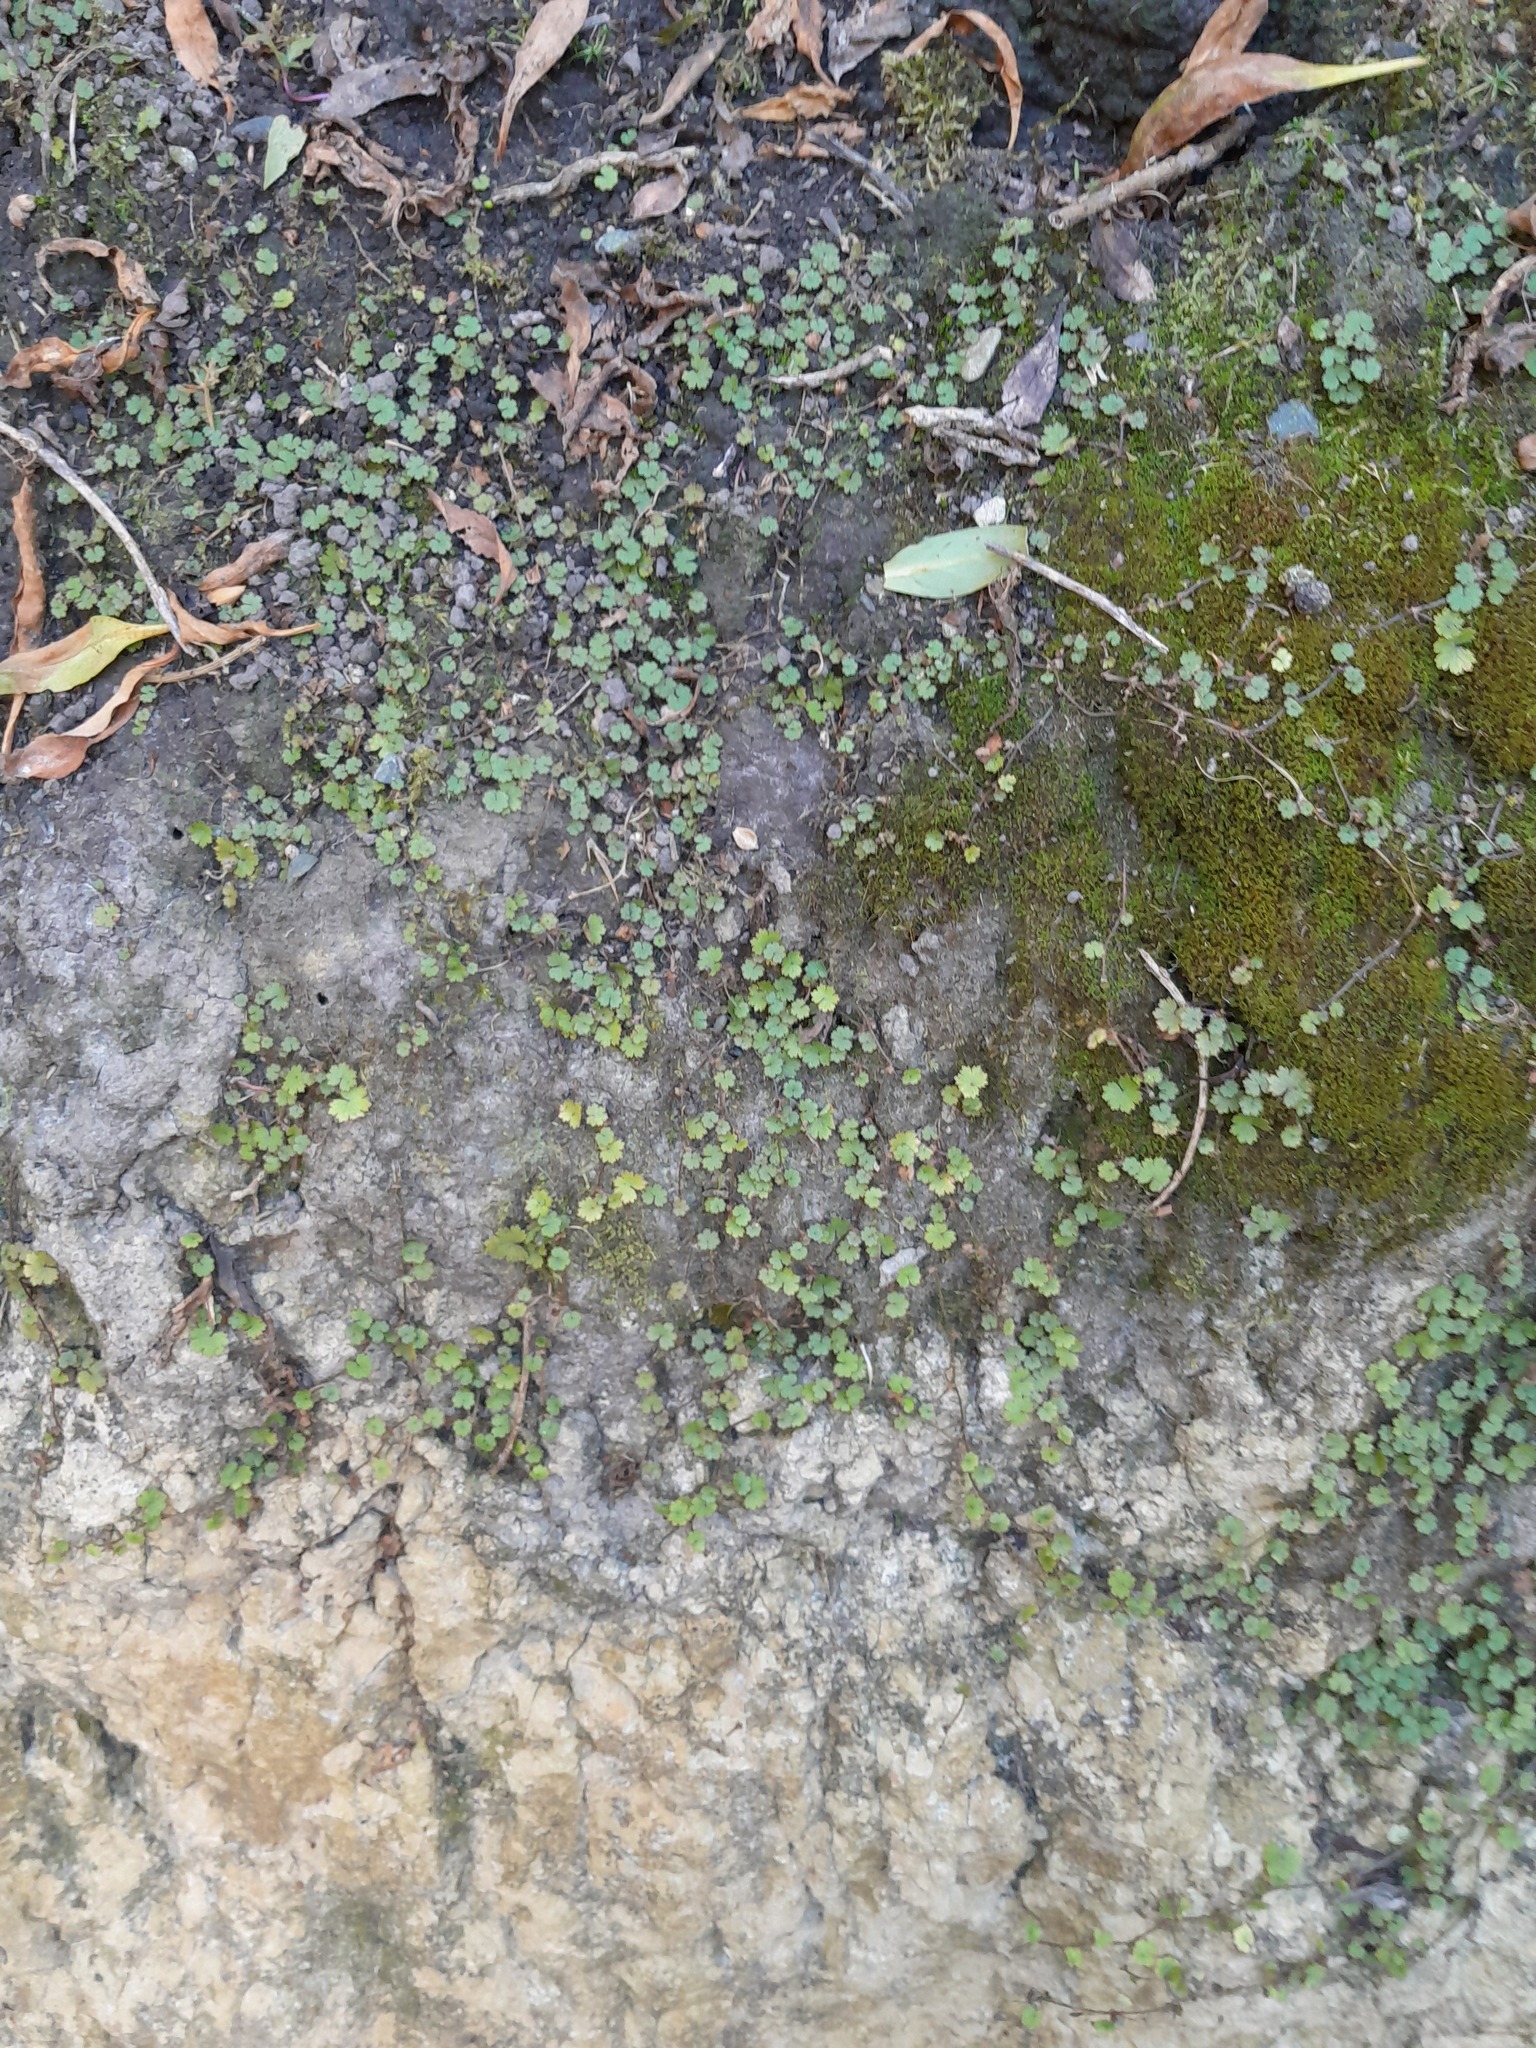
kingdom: Plantae
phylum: Tracheophyta
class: Magnoliopsida
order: Apiales
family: Araliaceae
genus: Hydrocotyle
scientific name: Hydrocotyle moschata
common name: Hairy pennywort
